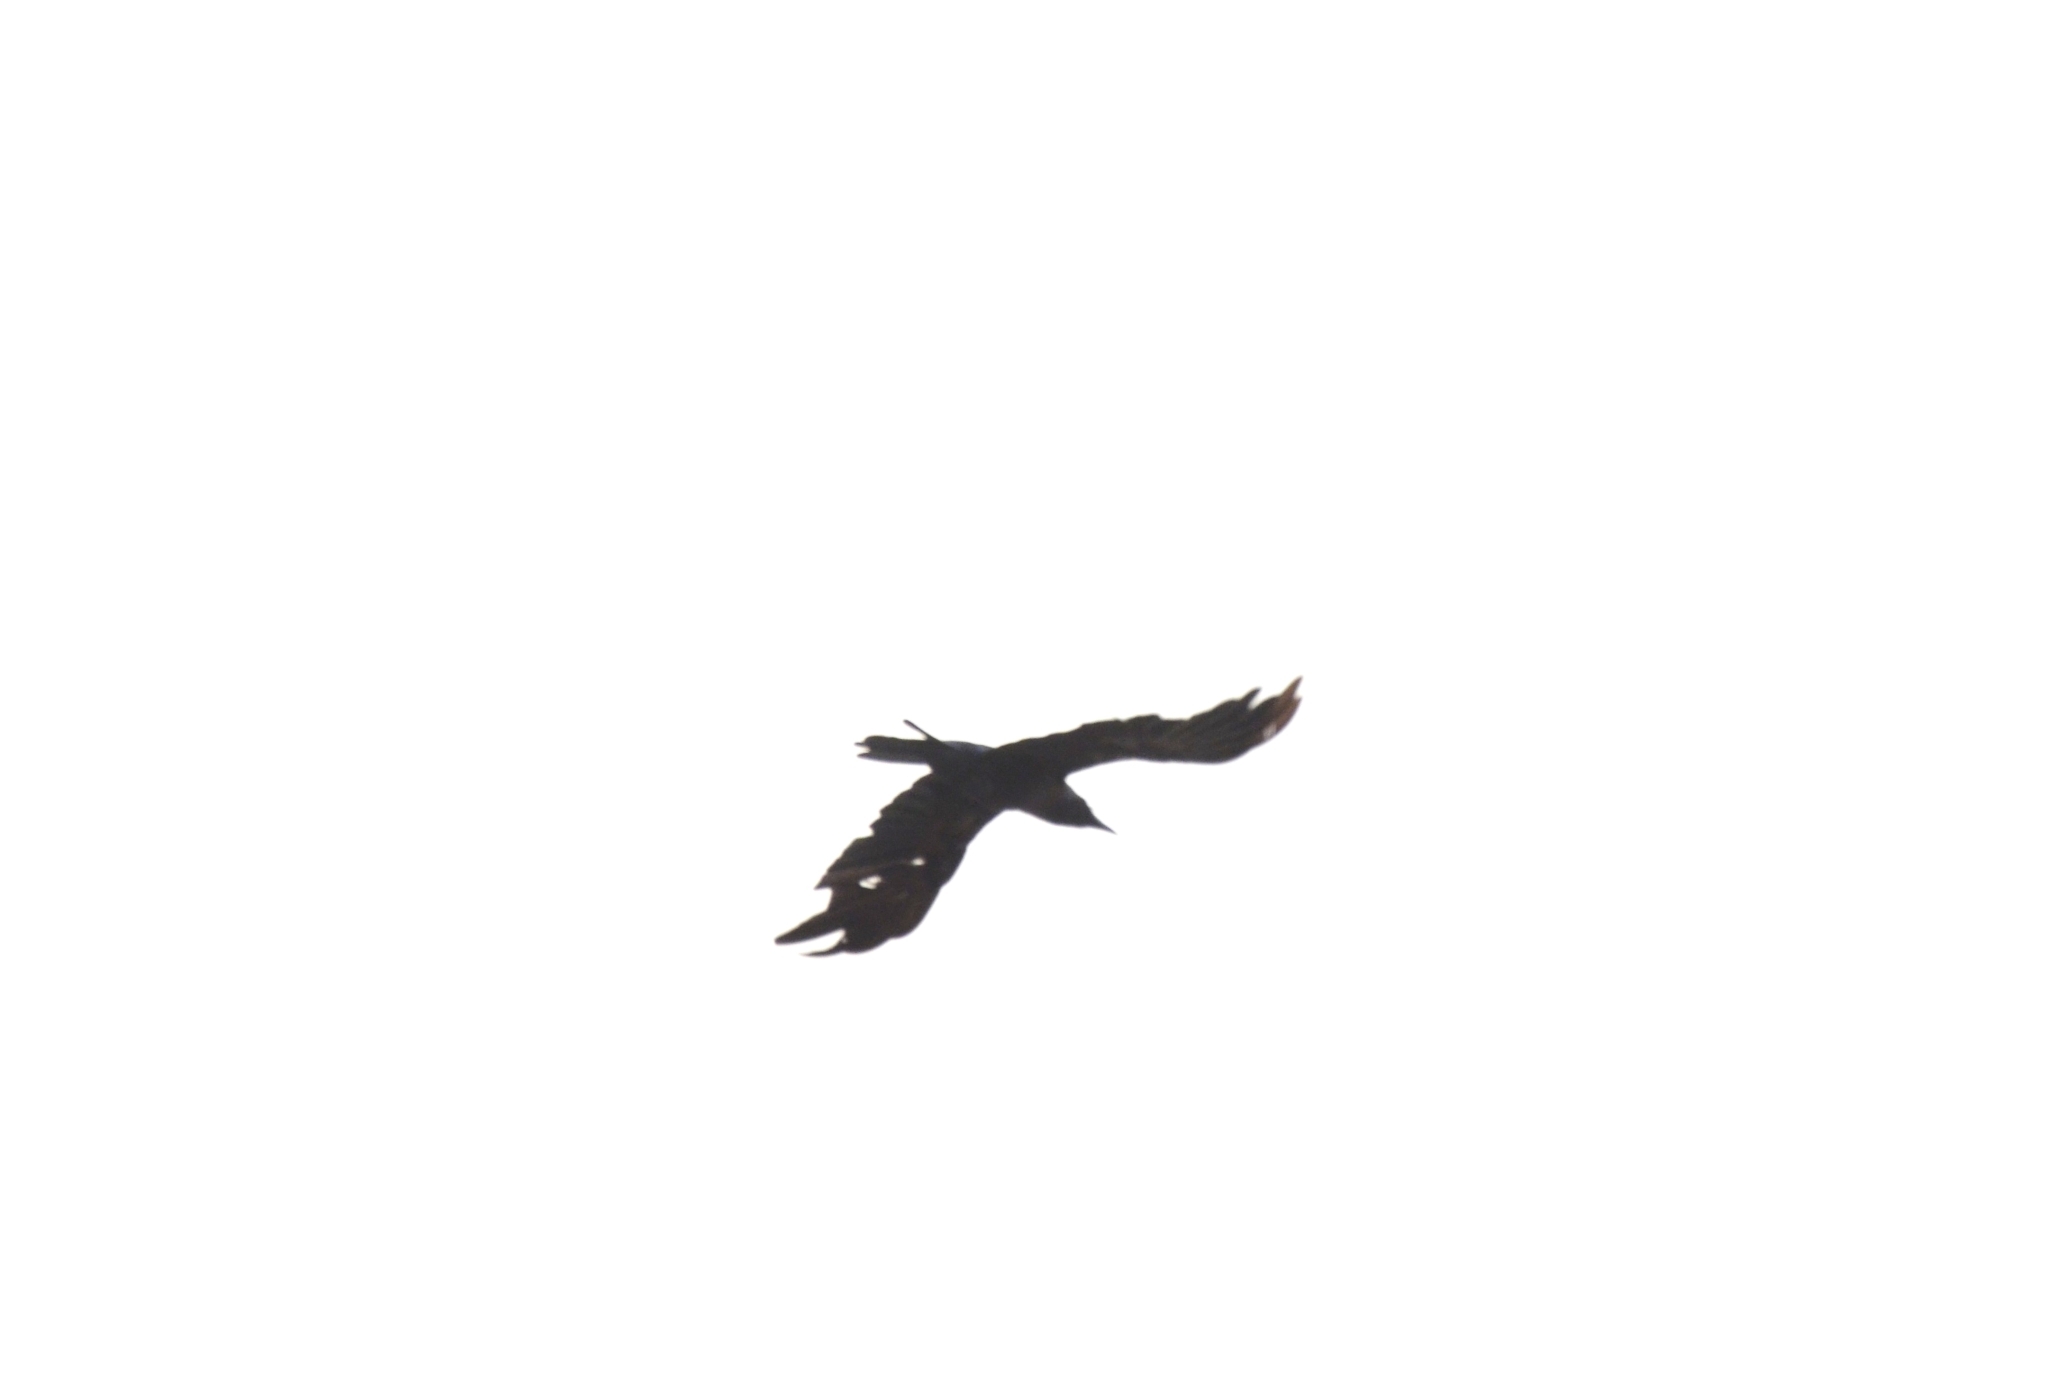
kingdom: Animalia
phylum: Chordata
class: Aves
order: Passeriformes
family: Corvidae
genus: Corvus
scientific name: Corvus splendens
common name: House crow
